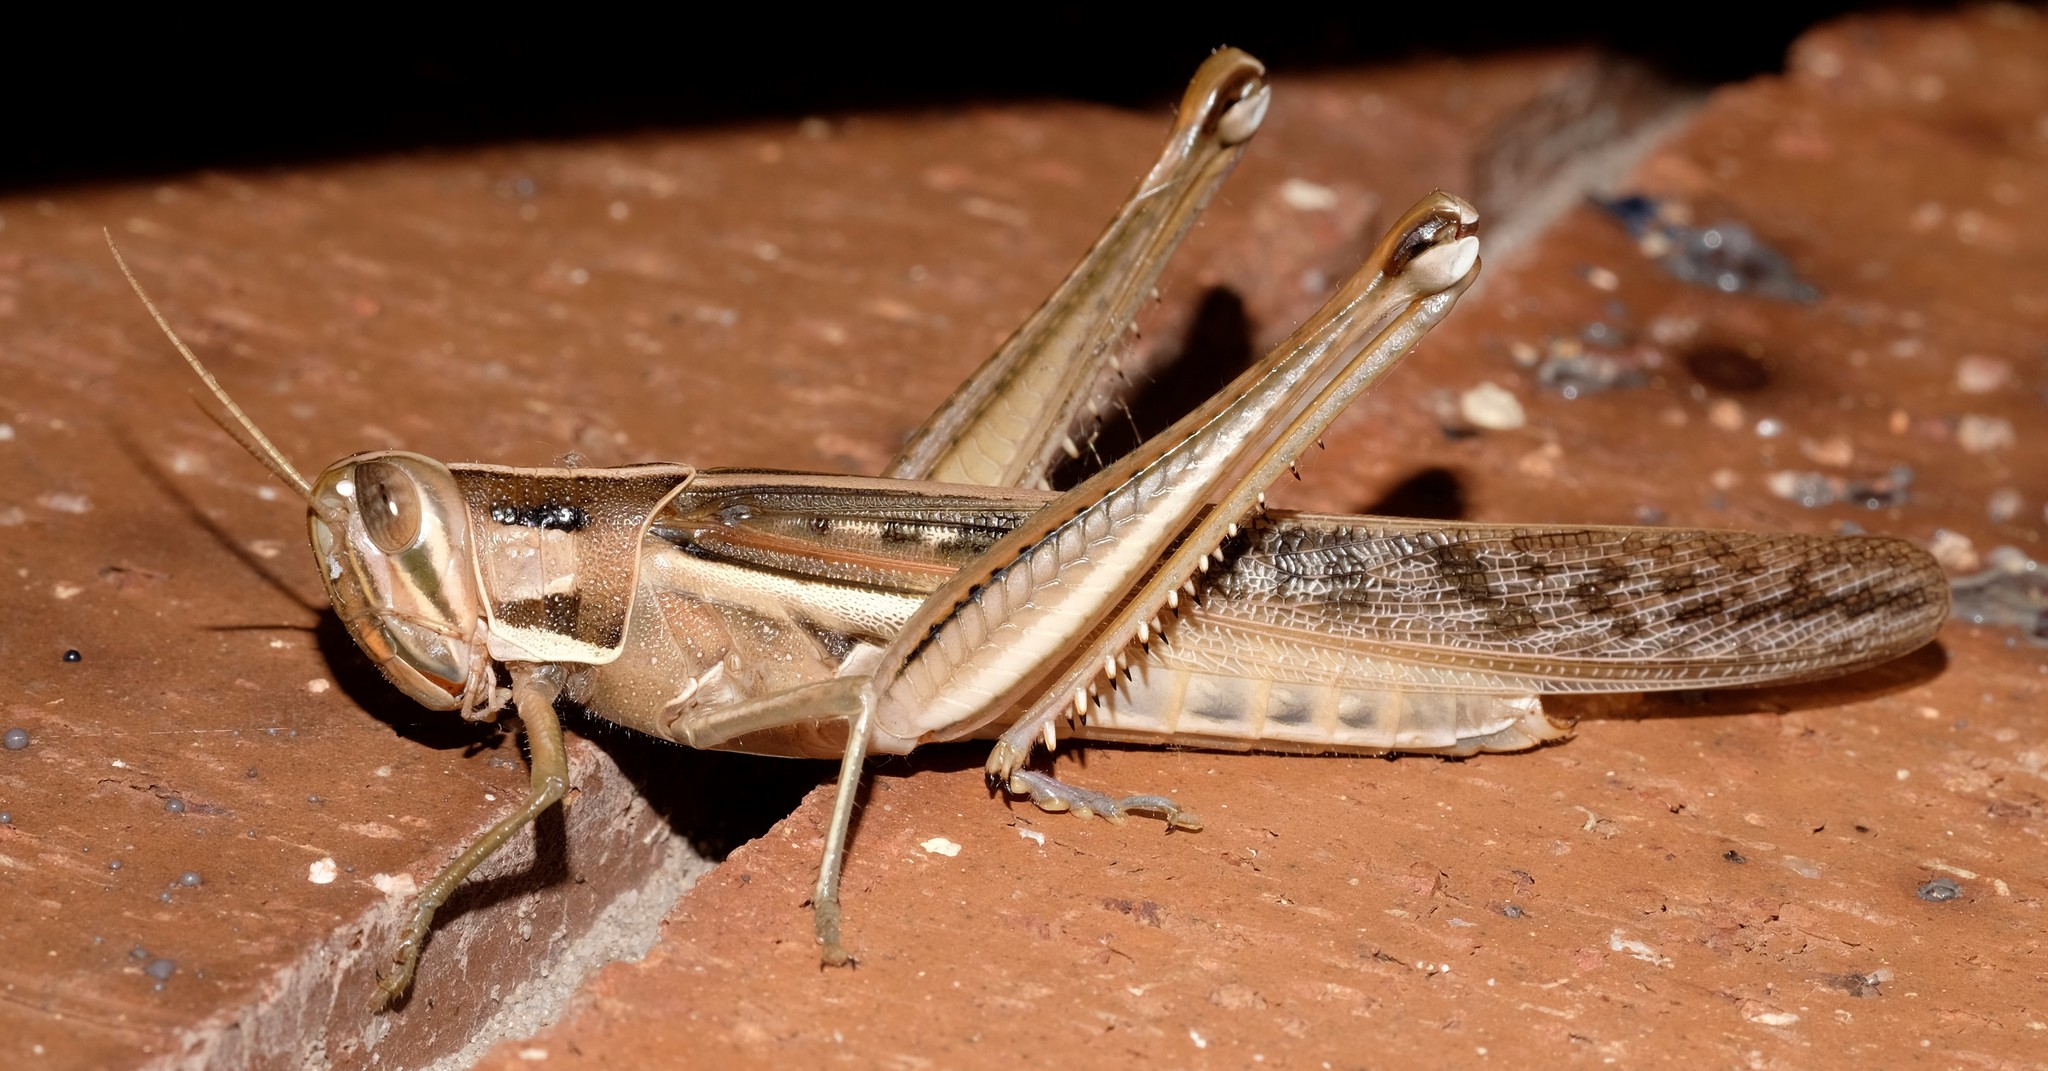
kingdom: Animalia
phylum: Arthropoda
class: Insecta
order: Orthoptera
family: Acrididae
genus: Austracris
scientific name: Austracris guttulosa
